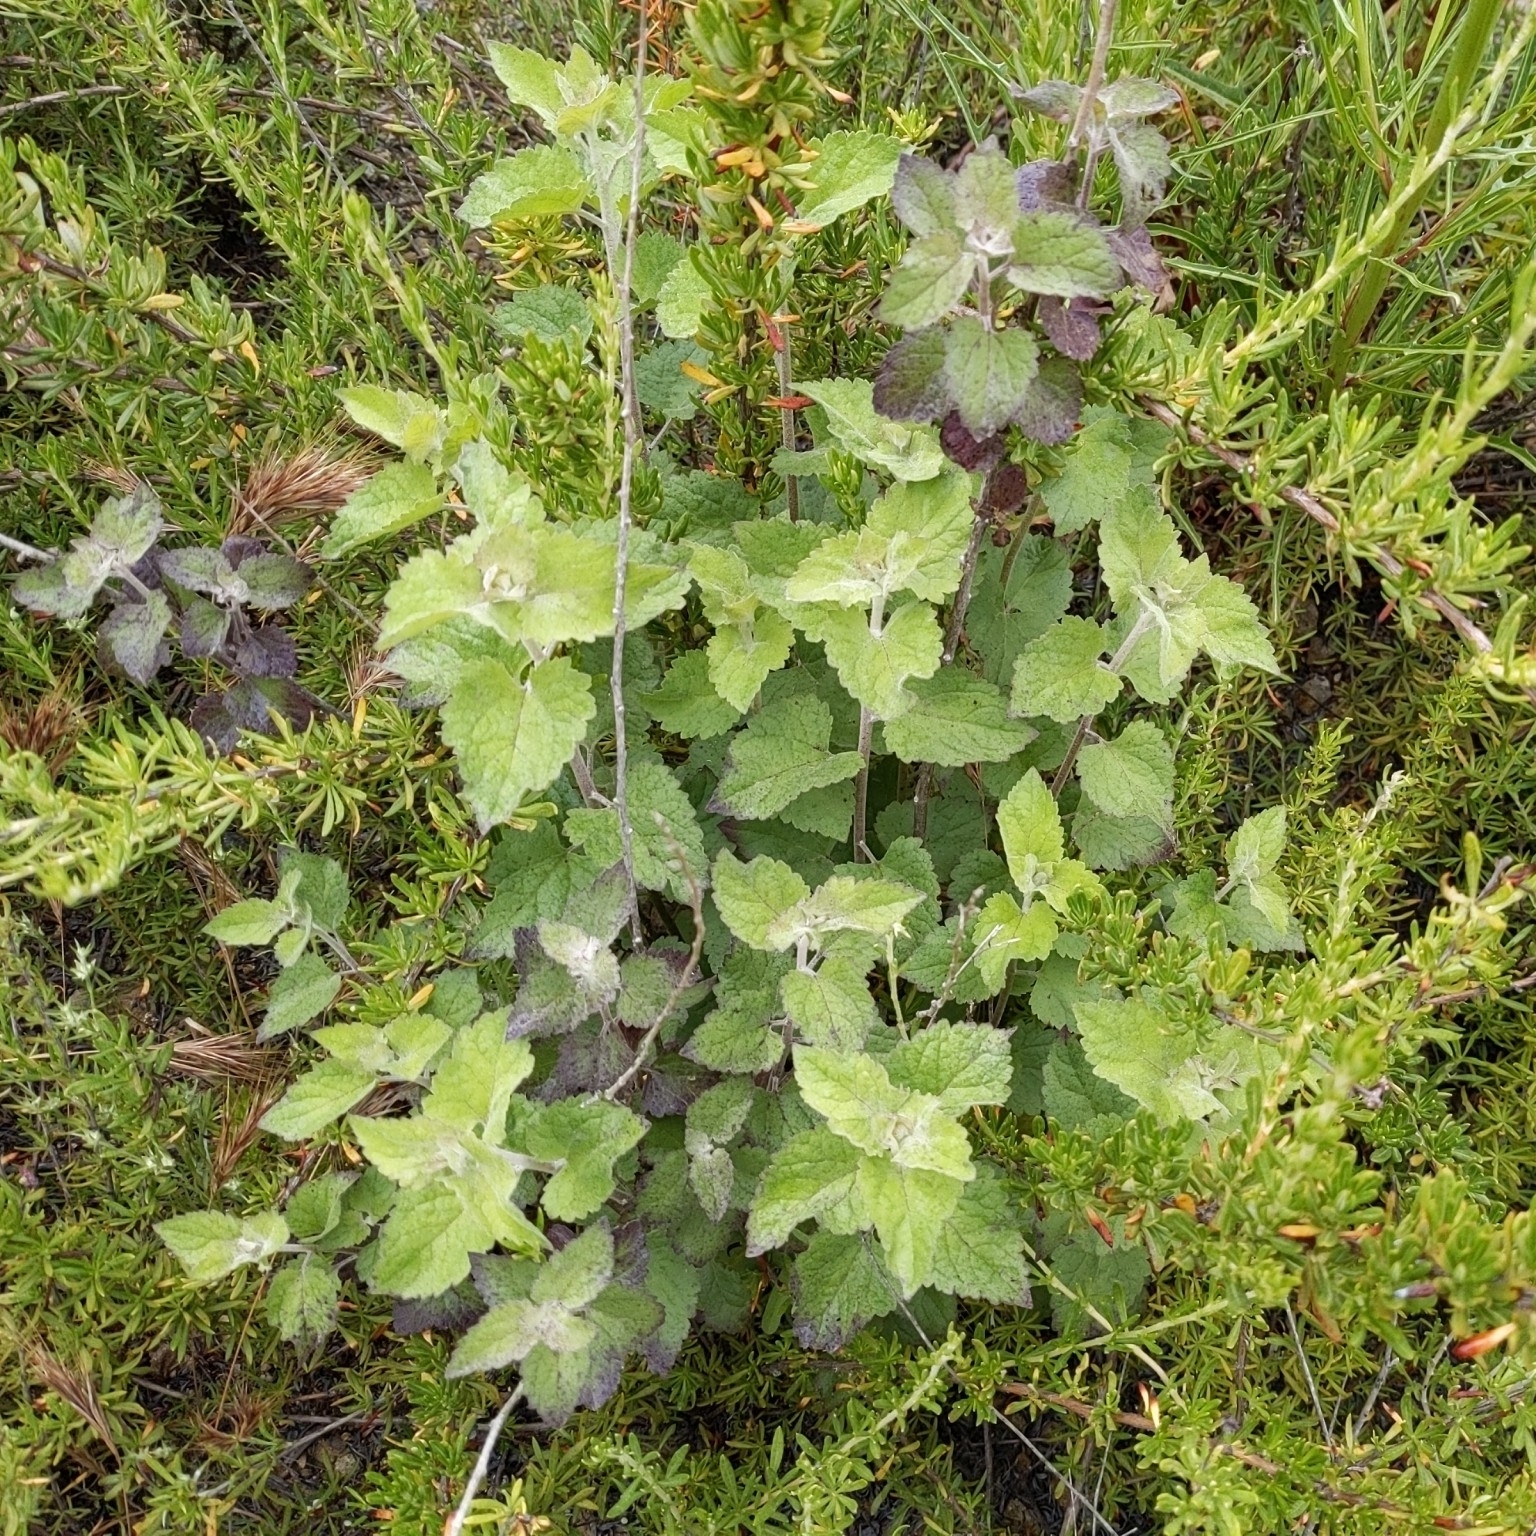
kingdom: Plantae
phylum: Tracheophyta
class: Magnoliopsida
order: Asterales
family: Asteraceae
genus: Brickellia
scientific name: Brickellia californica
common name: California brickellbush
